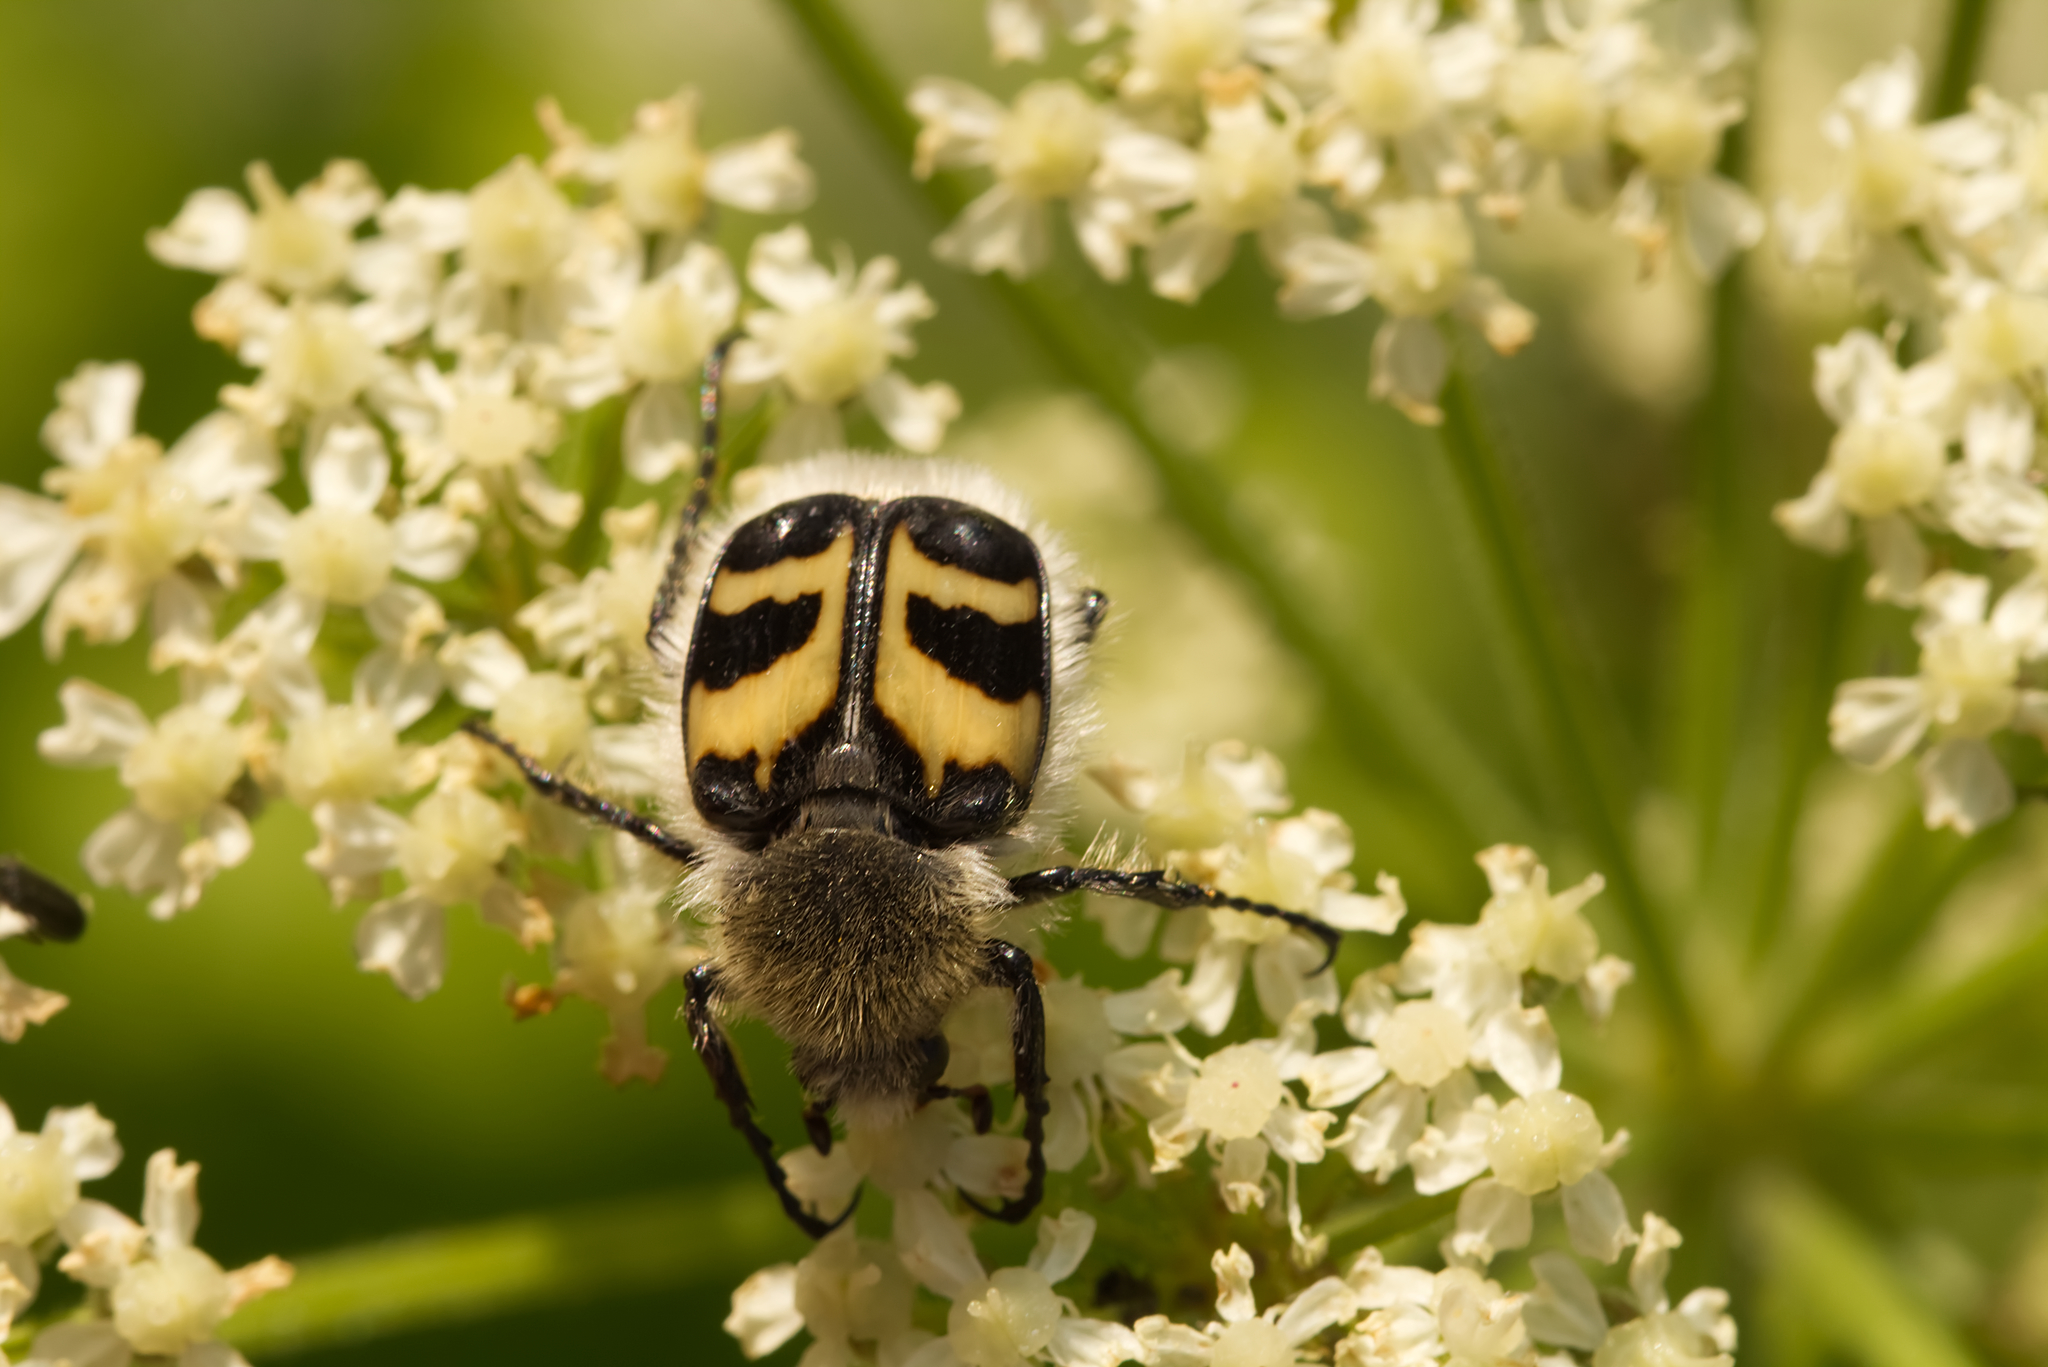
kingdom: Animalia
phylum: Arthropoda
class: Insecta
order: Coleoptera
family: Scarabaeidae
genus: Trichius
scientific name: Trichius fasciatus
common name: Bee beetle
